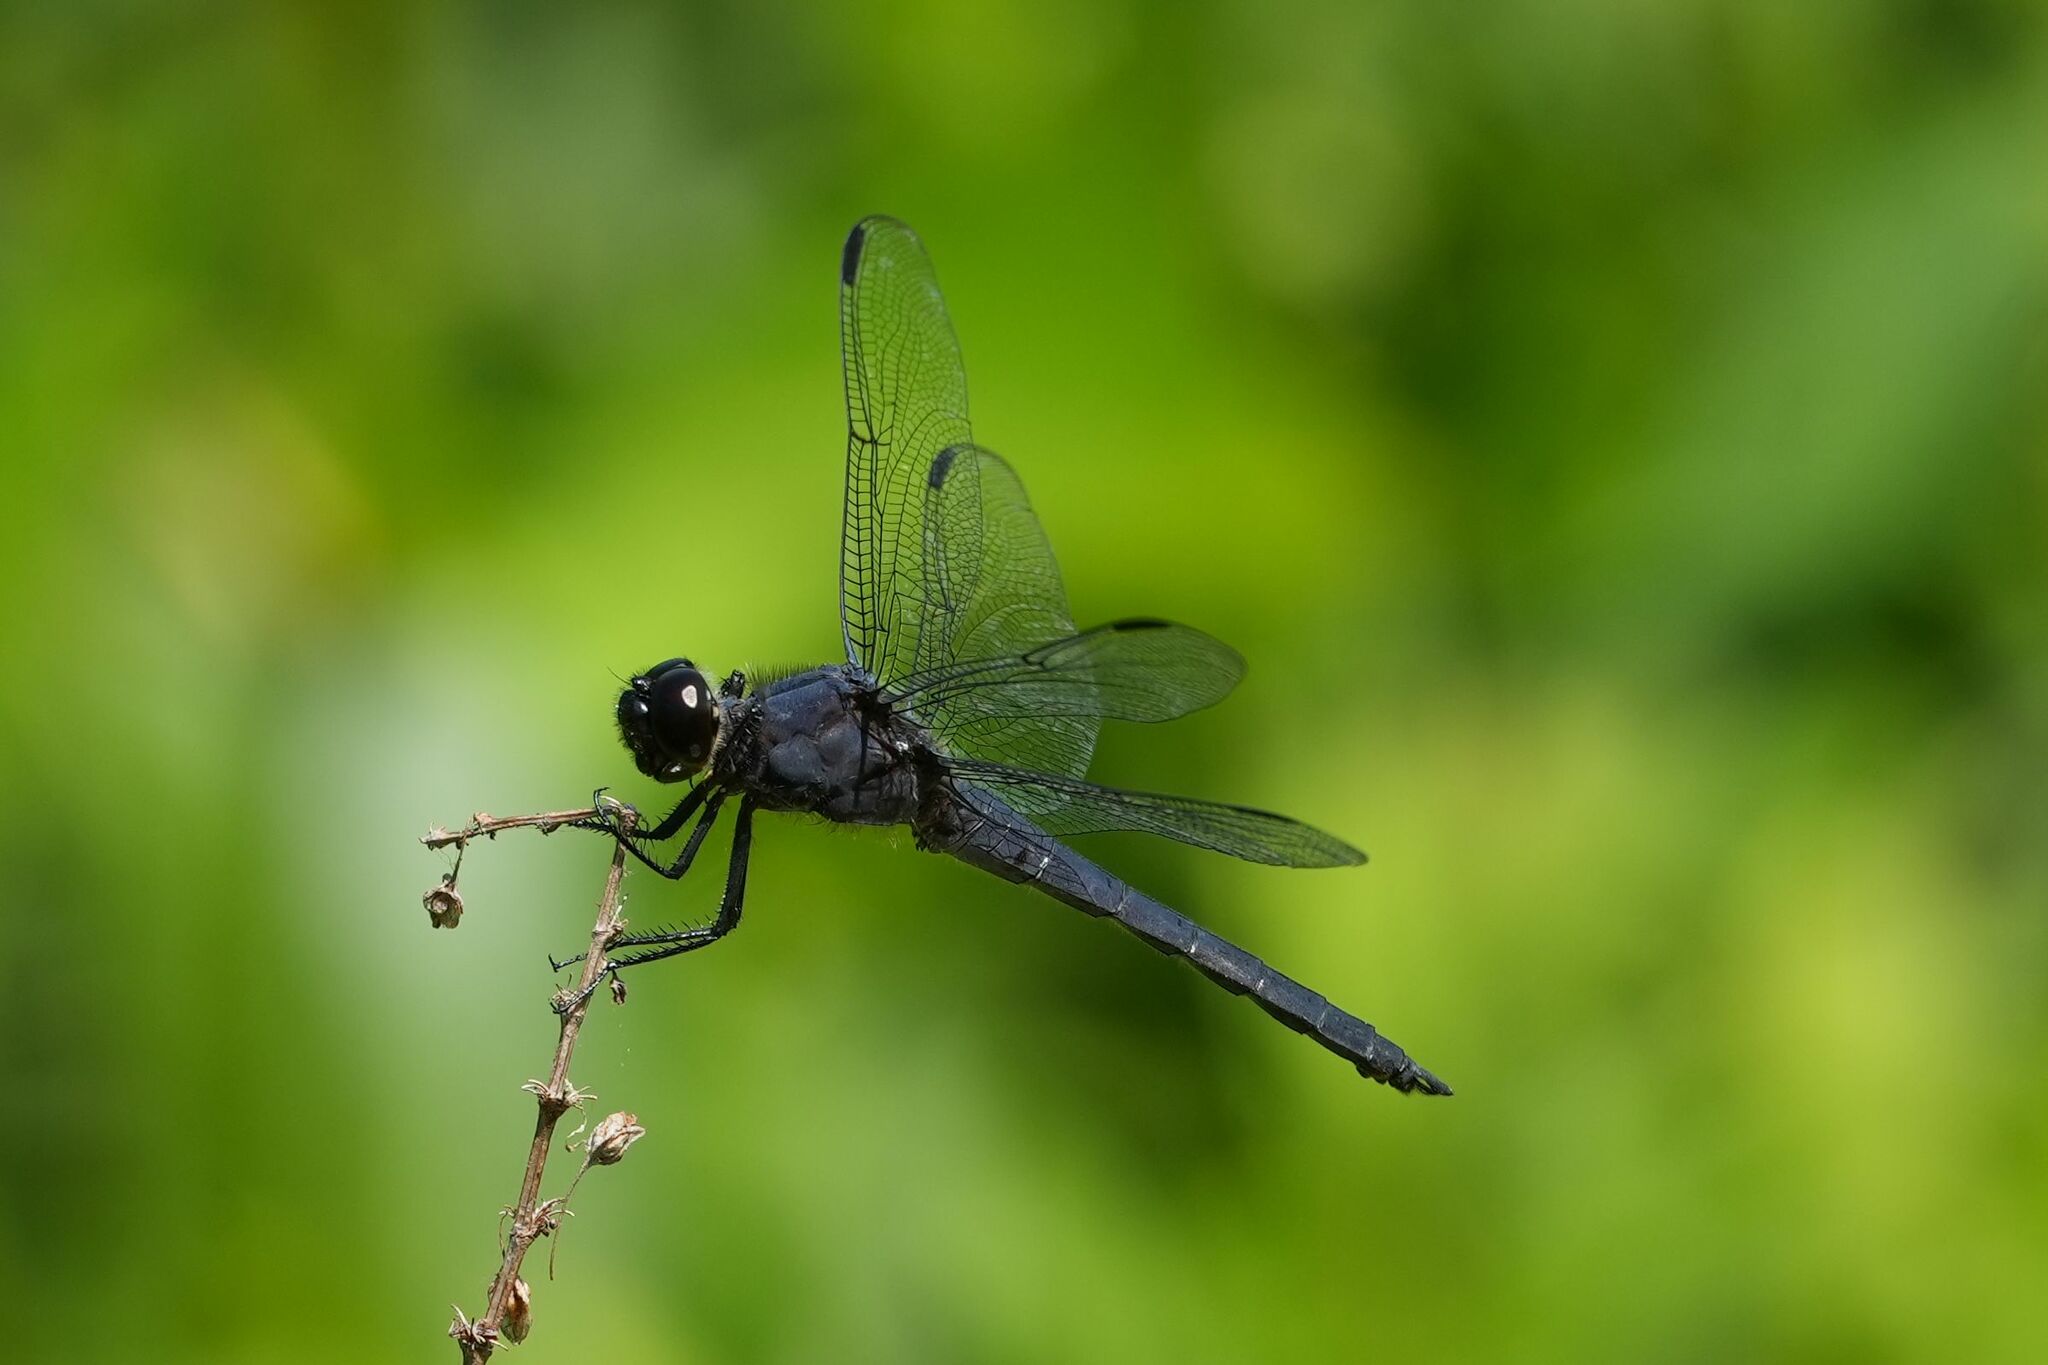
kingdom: Animalia
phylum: Arthropoda
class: Insecta
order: Odonata
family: Libellulidae
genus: Libellula
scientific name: Libellula incesta
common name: Slaty skimmer
